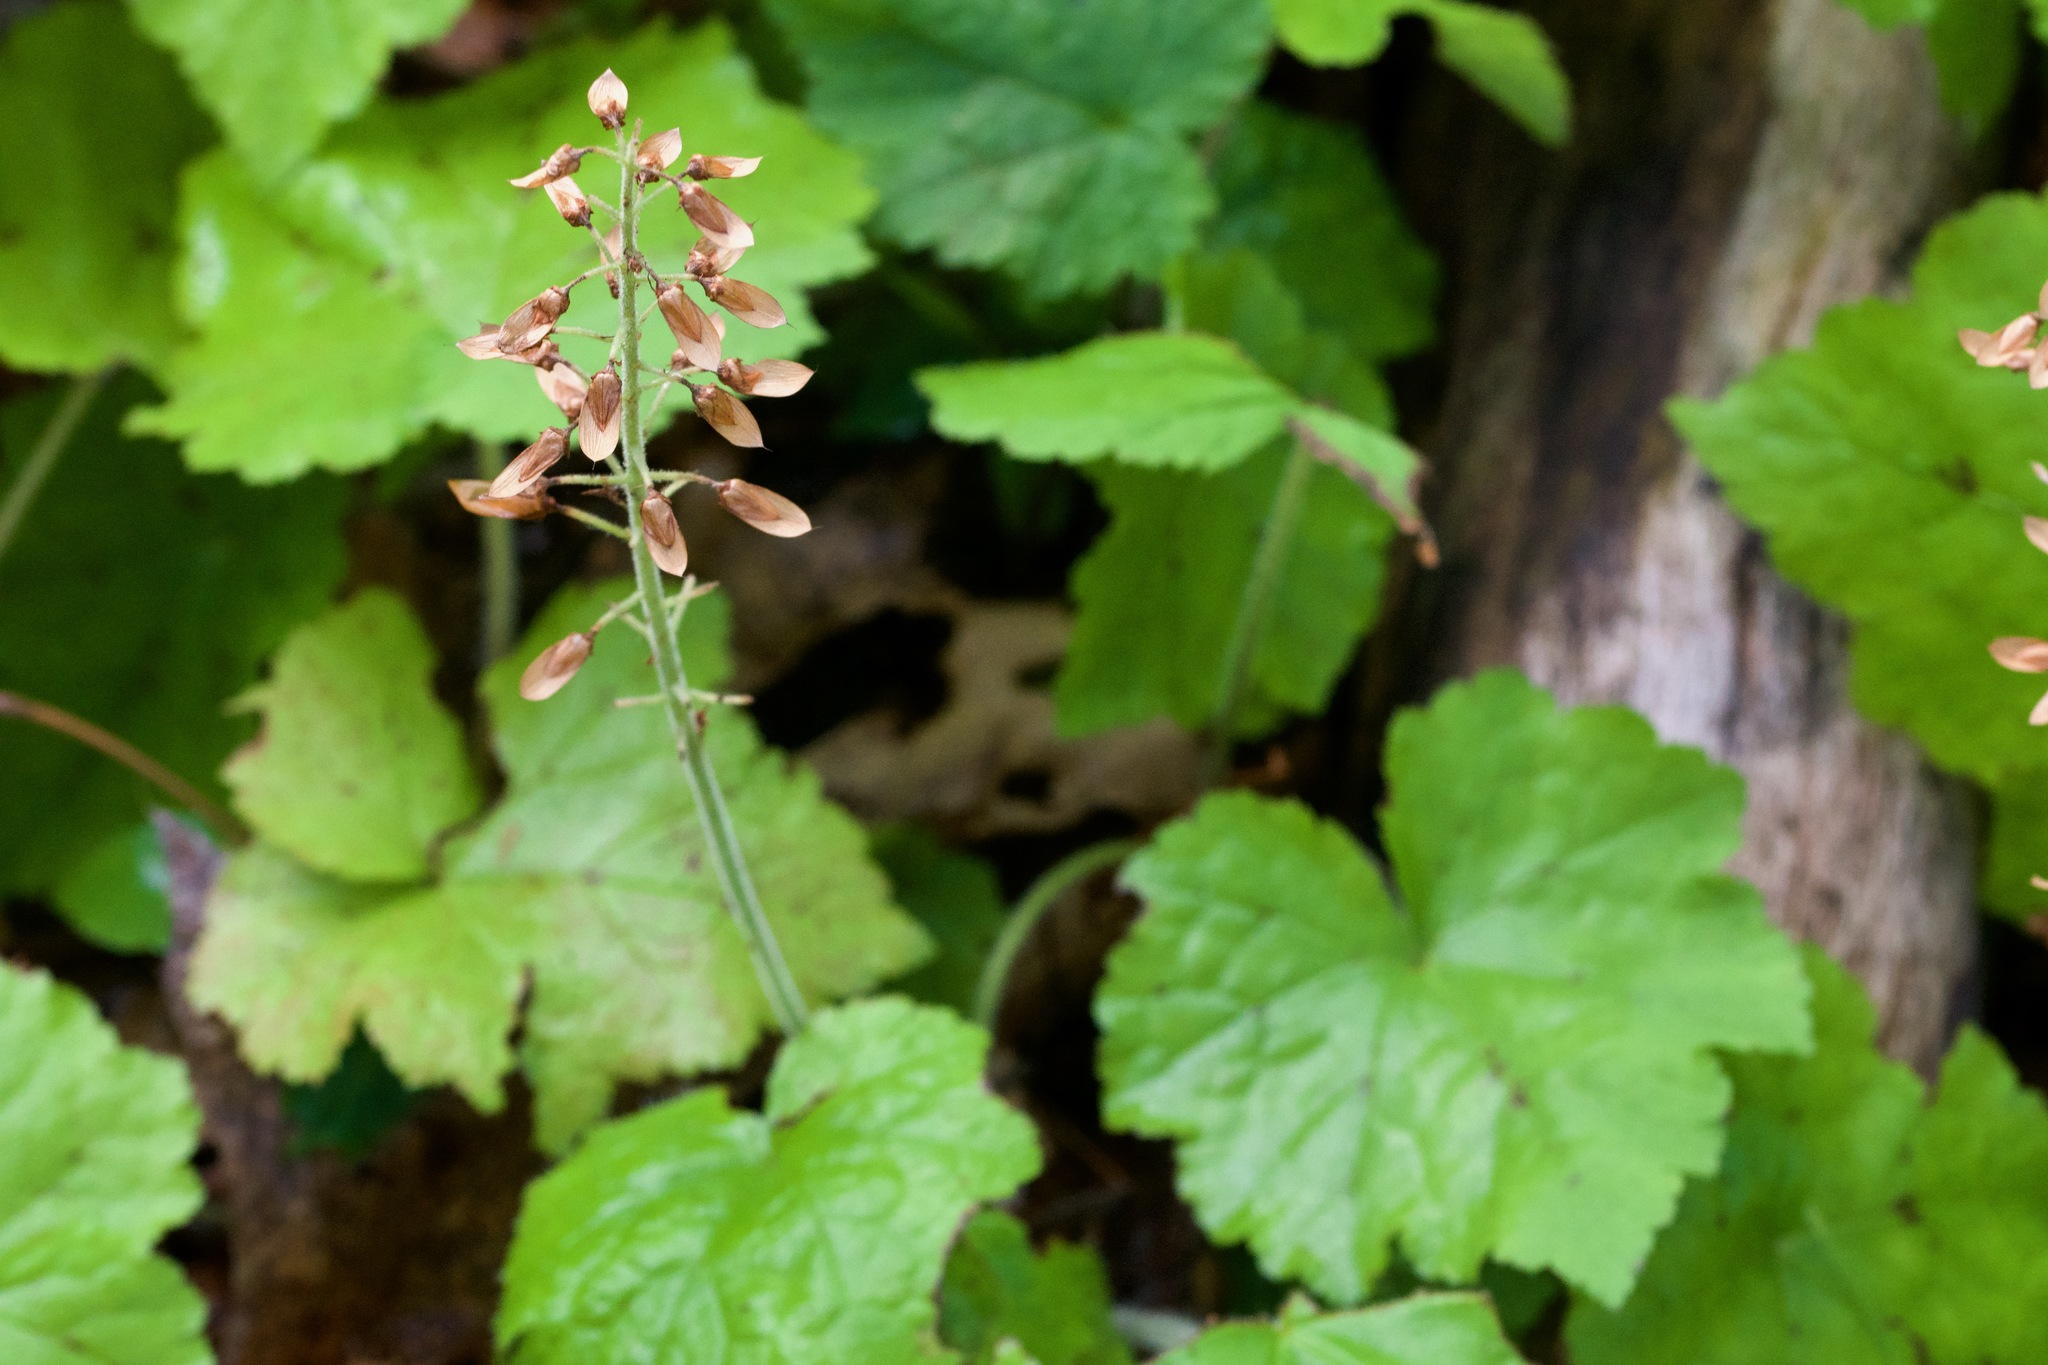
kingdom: Plantae
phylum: Tracheophyta
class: Magnoliopsida
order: Saxifragales
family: Saxifragaceae
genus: Tiarella
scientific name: Tiarella stolonifera
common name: Stoloniferous foamflower
